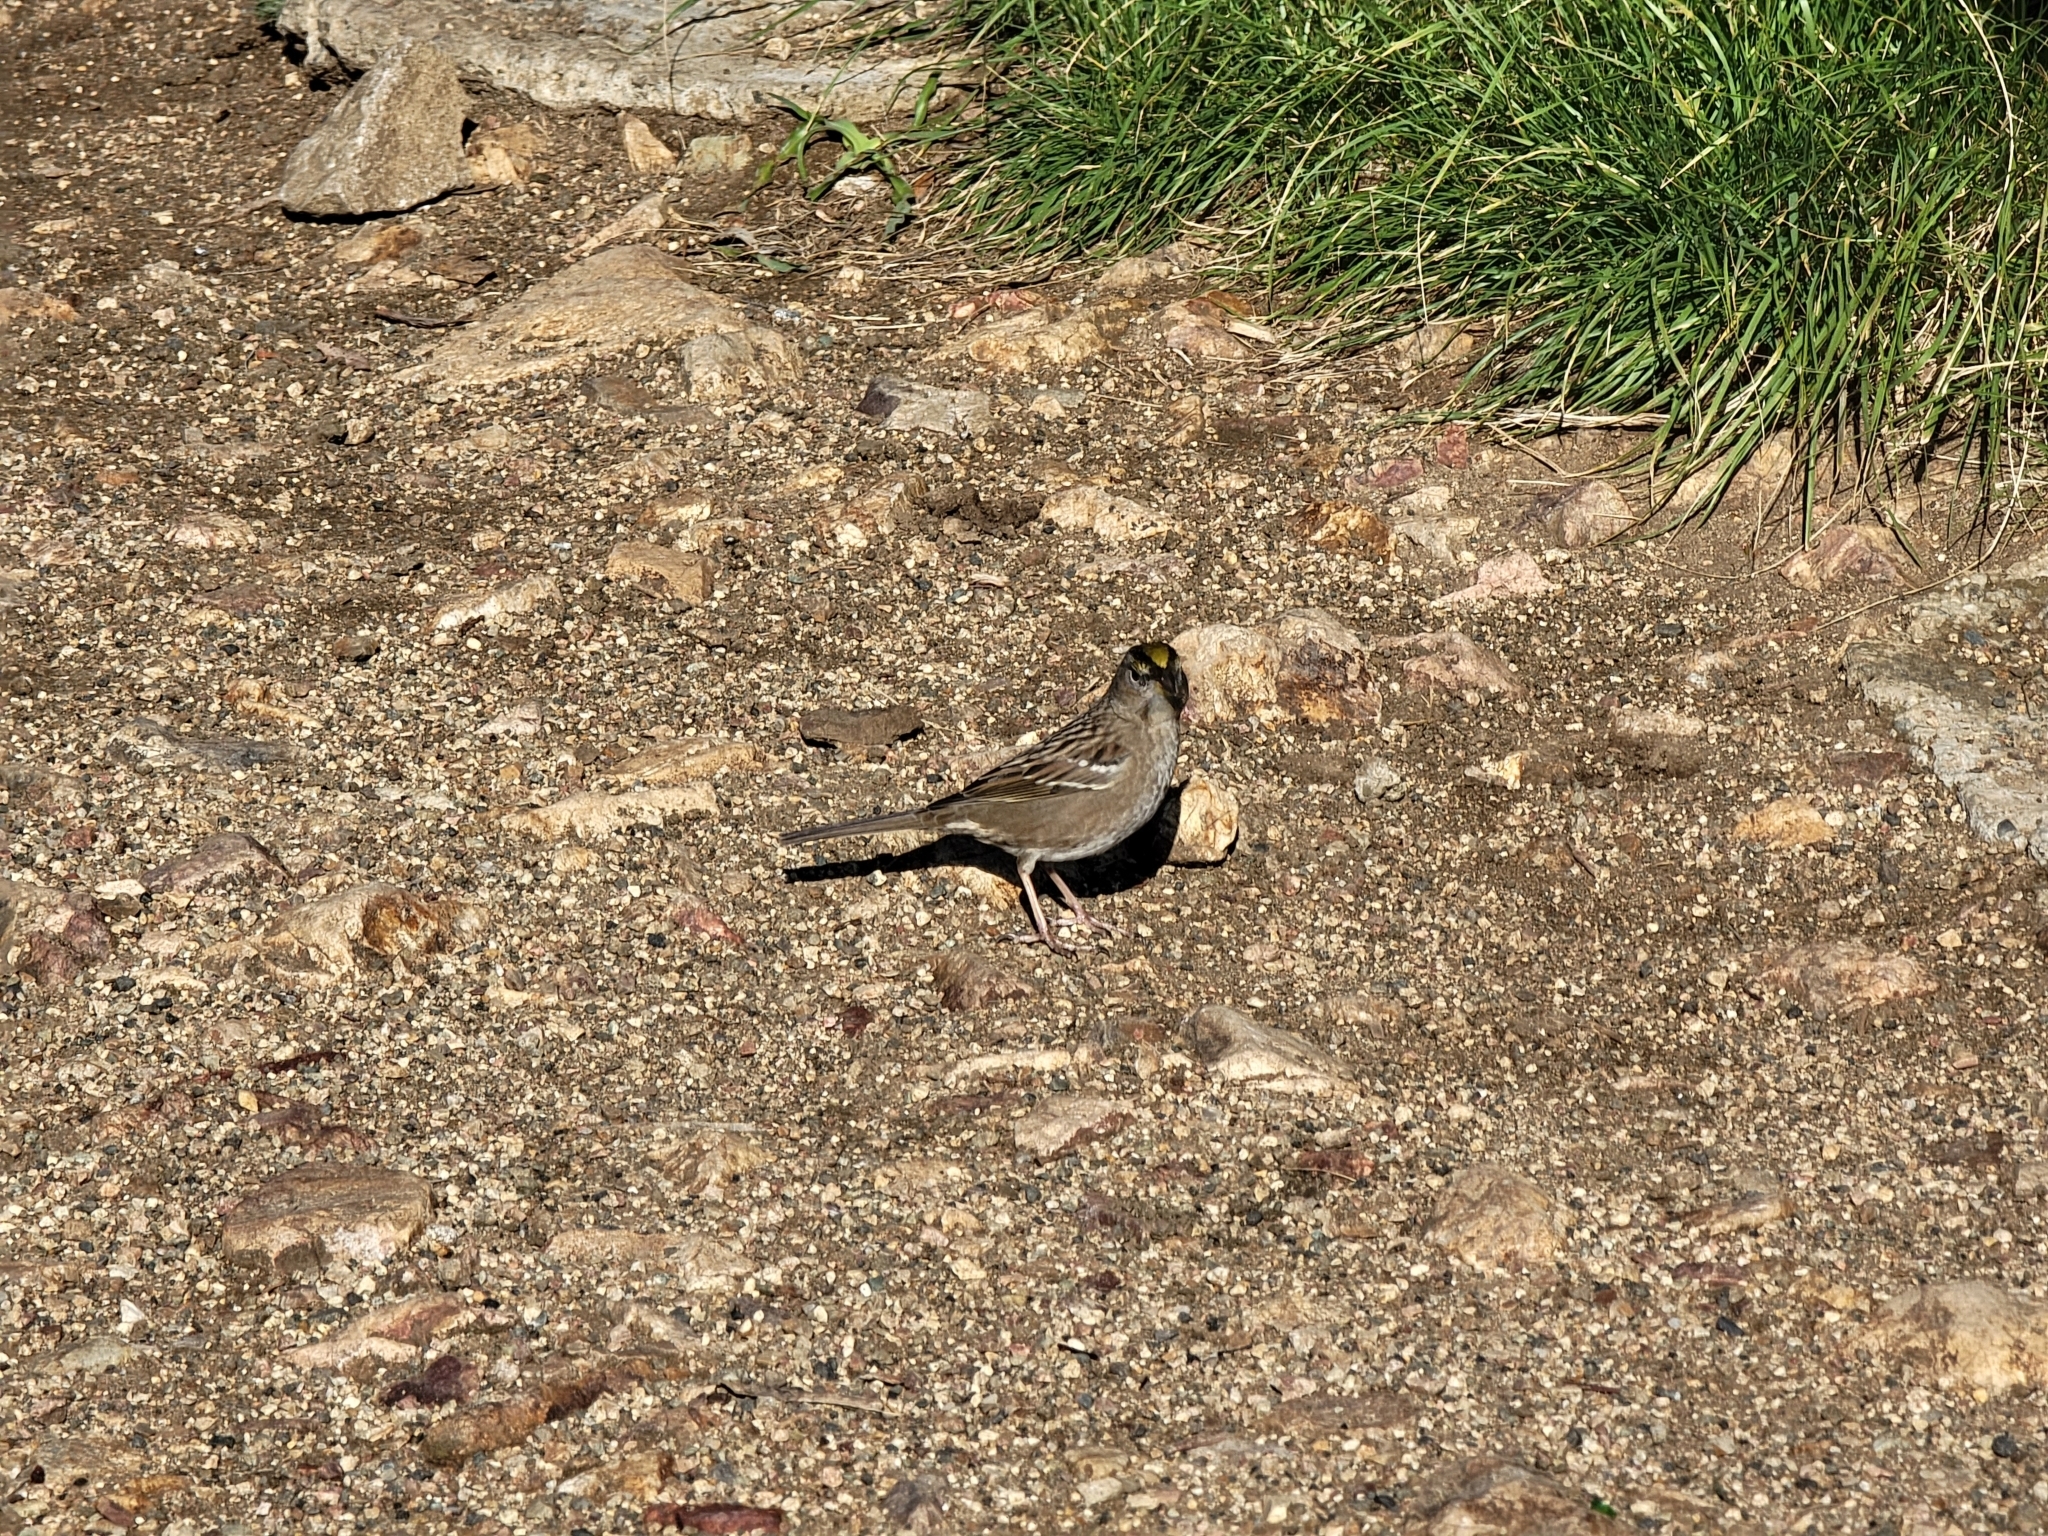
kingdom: Animalia
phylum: Chordata
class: Aves
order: Passeriformes
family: Passerellidae
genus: Zonotrichia
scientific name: Zonotrichia atricapilla
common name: Golden-crowned sparrow
